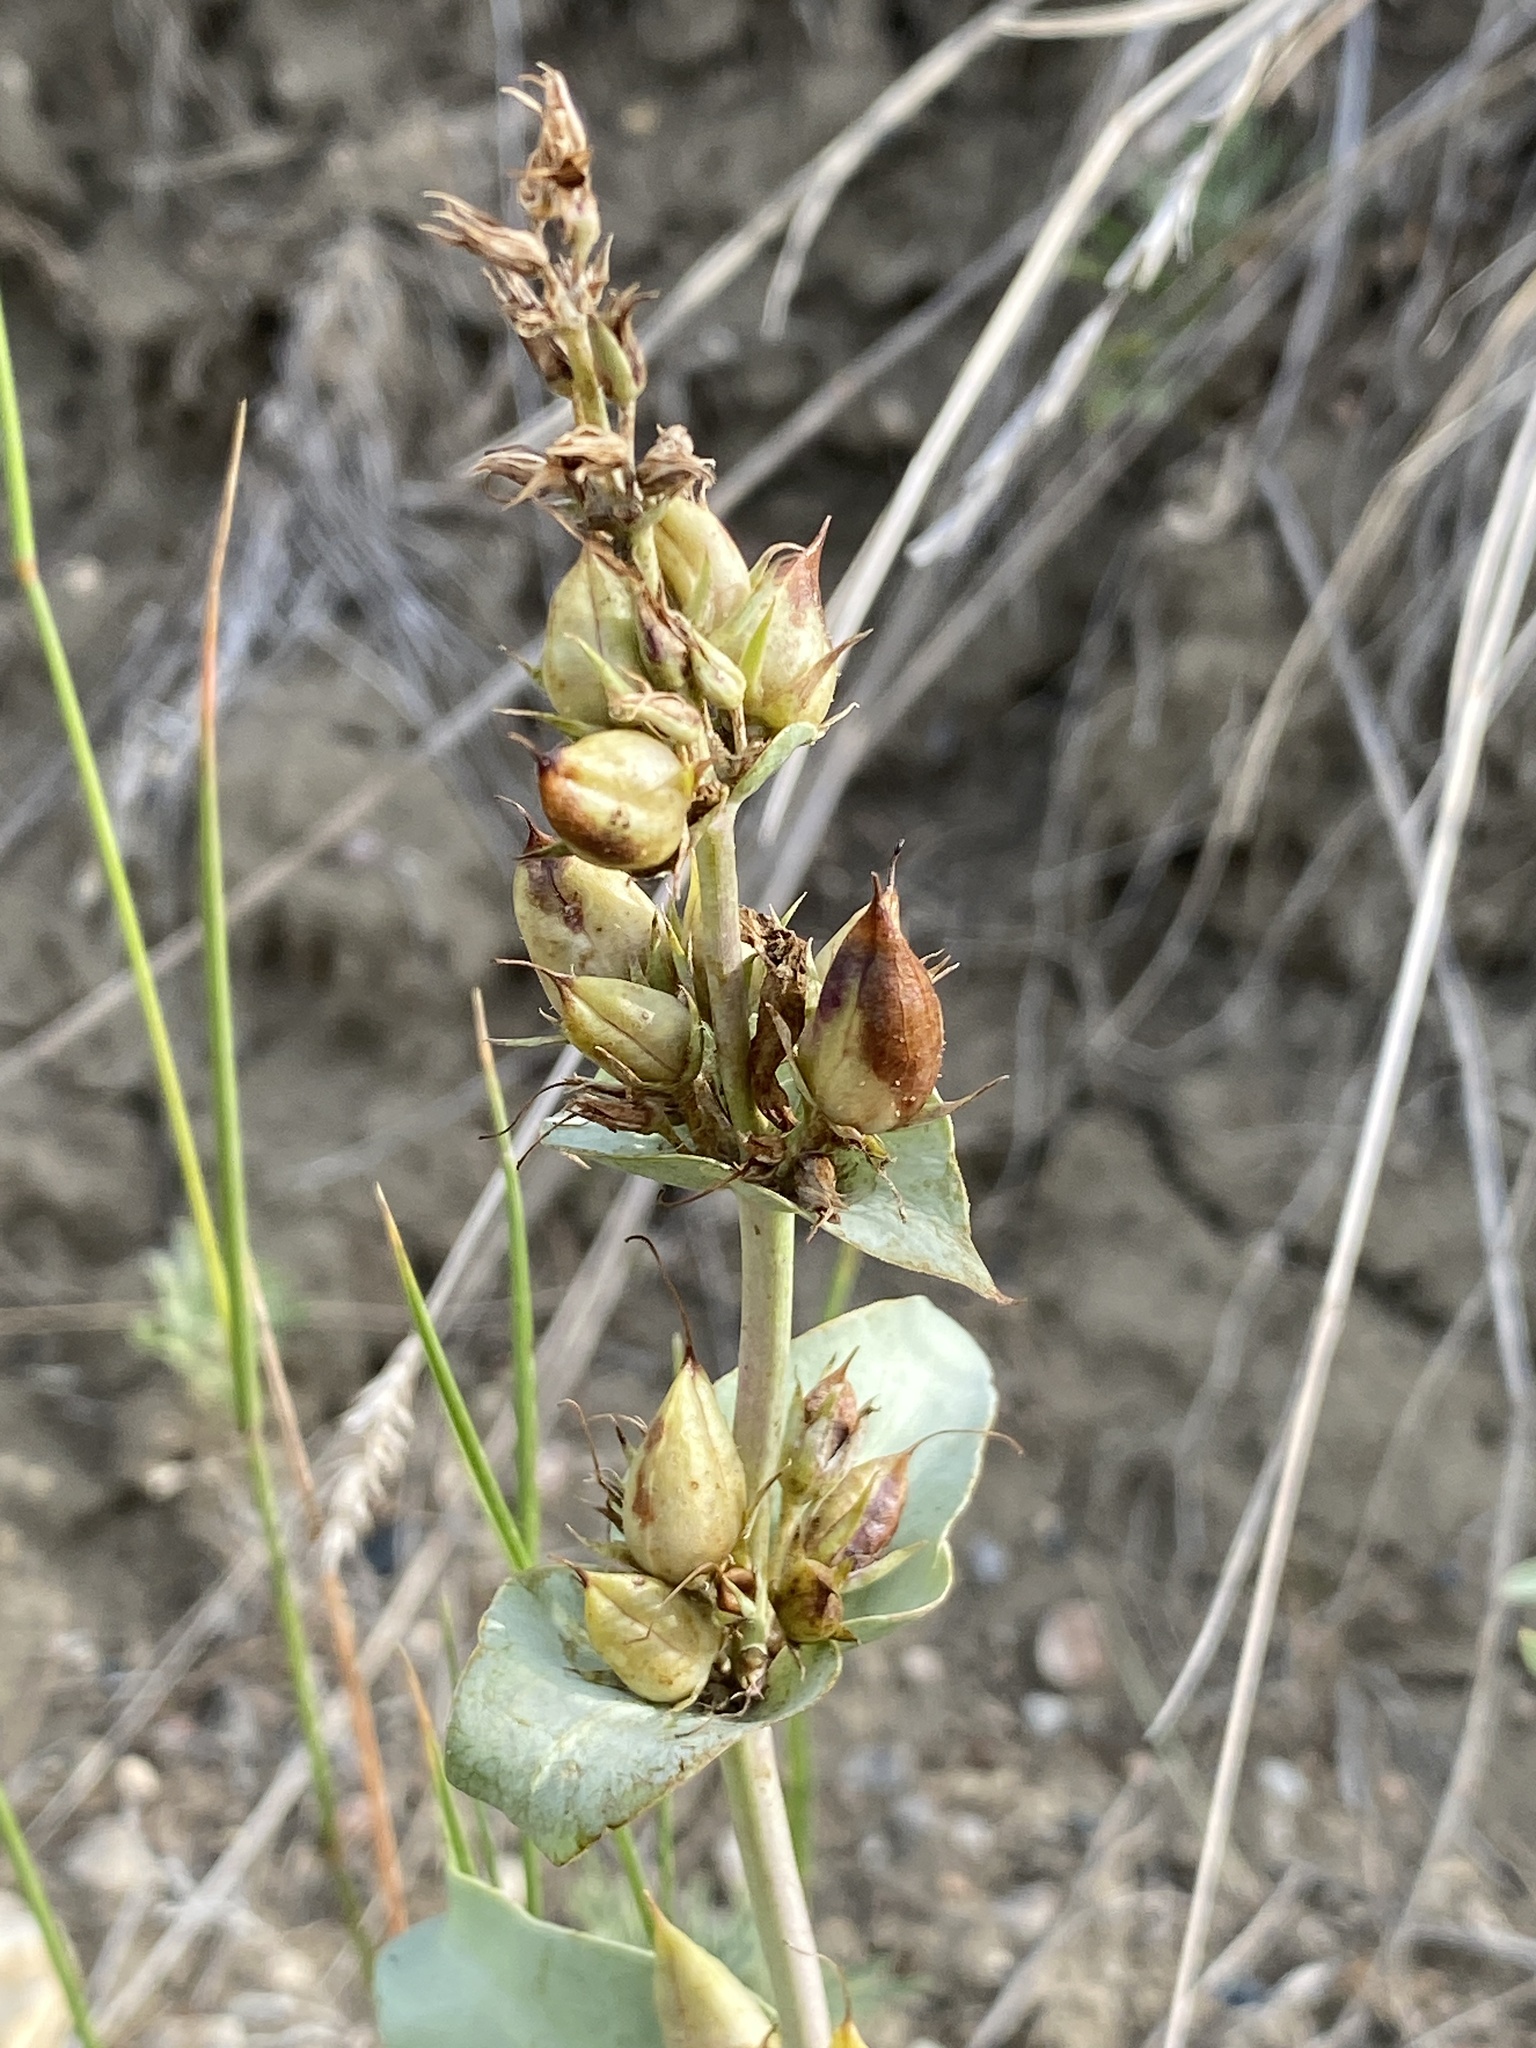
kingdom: Plantae
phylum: Tracheophyta
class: Magnoliopsida
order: Lamiales
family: Plantaginaceae
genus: Penstemon
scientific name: Penstemon nitidus
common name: Shining penstemon
